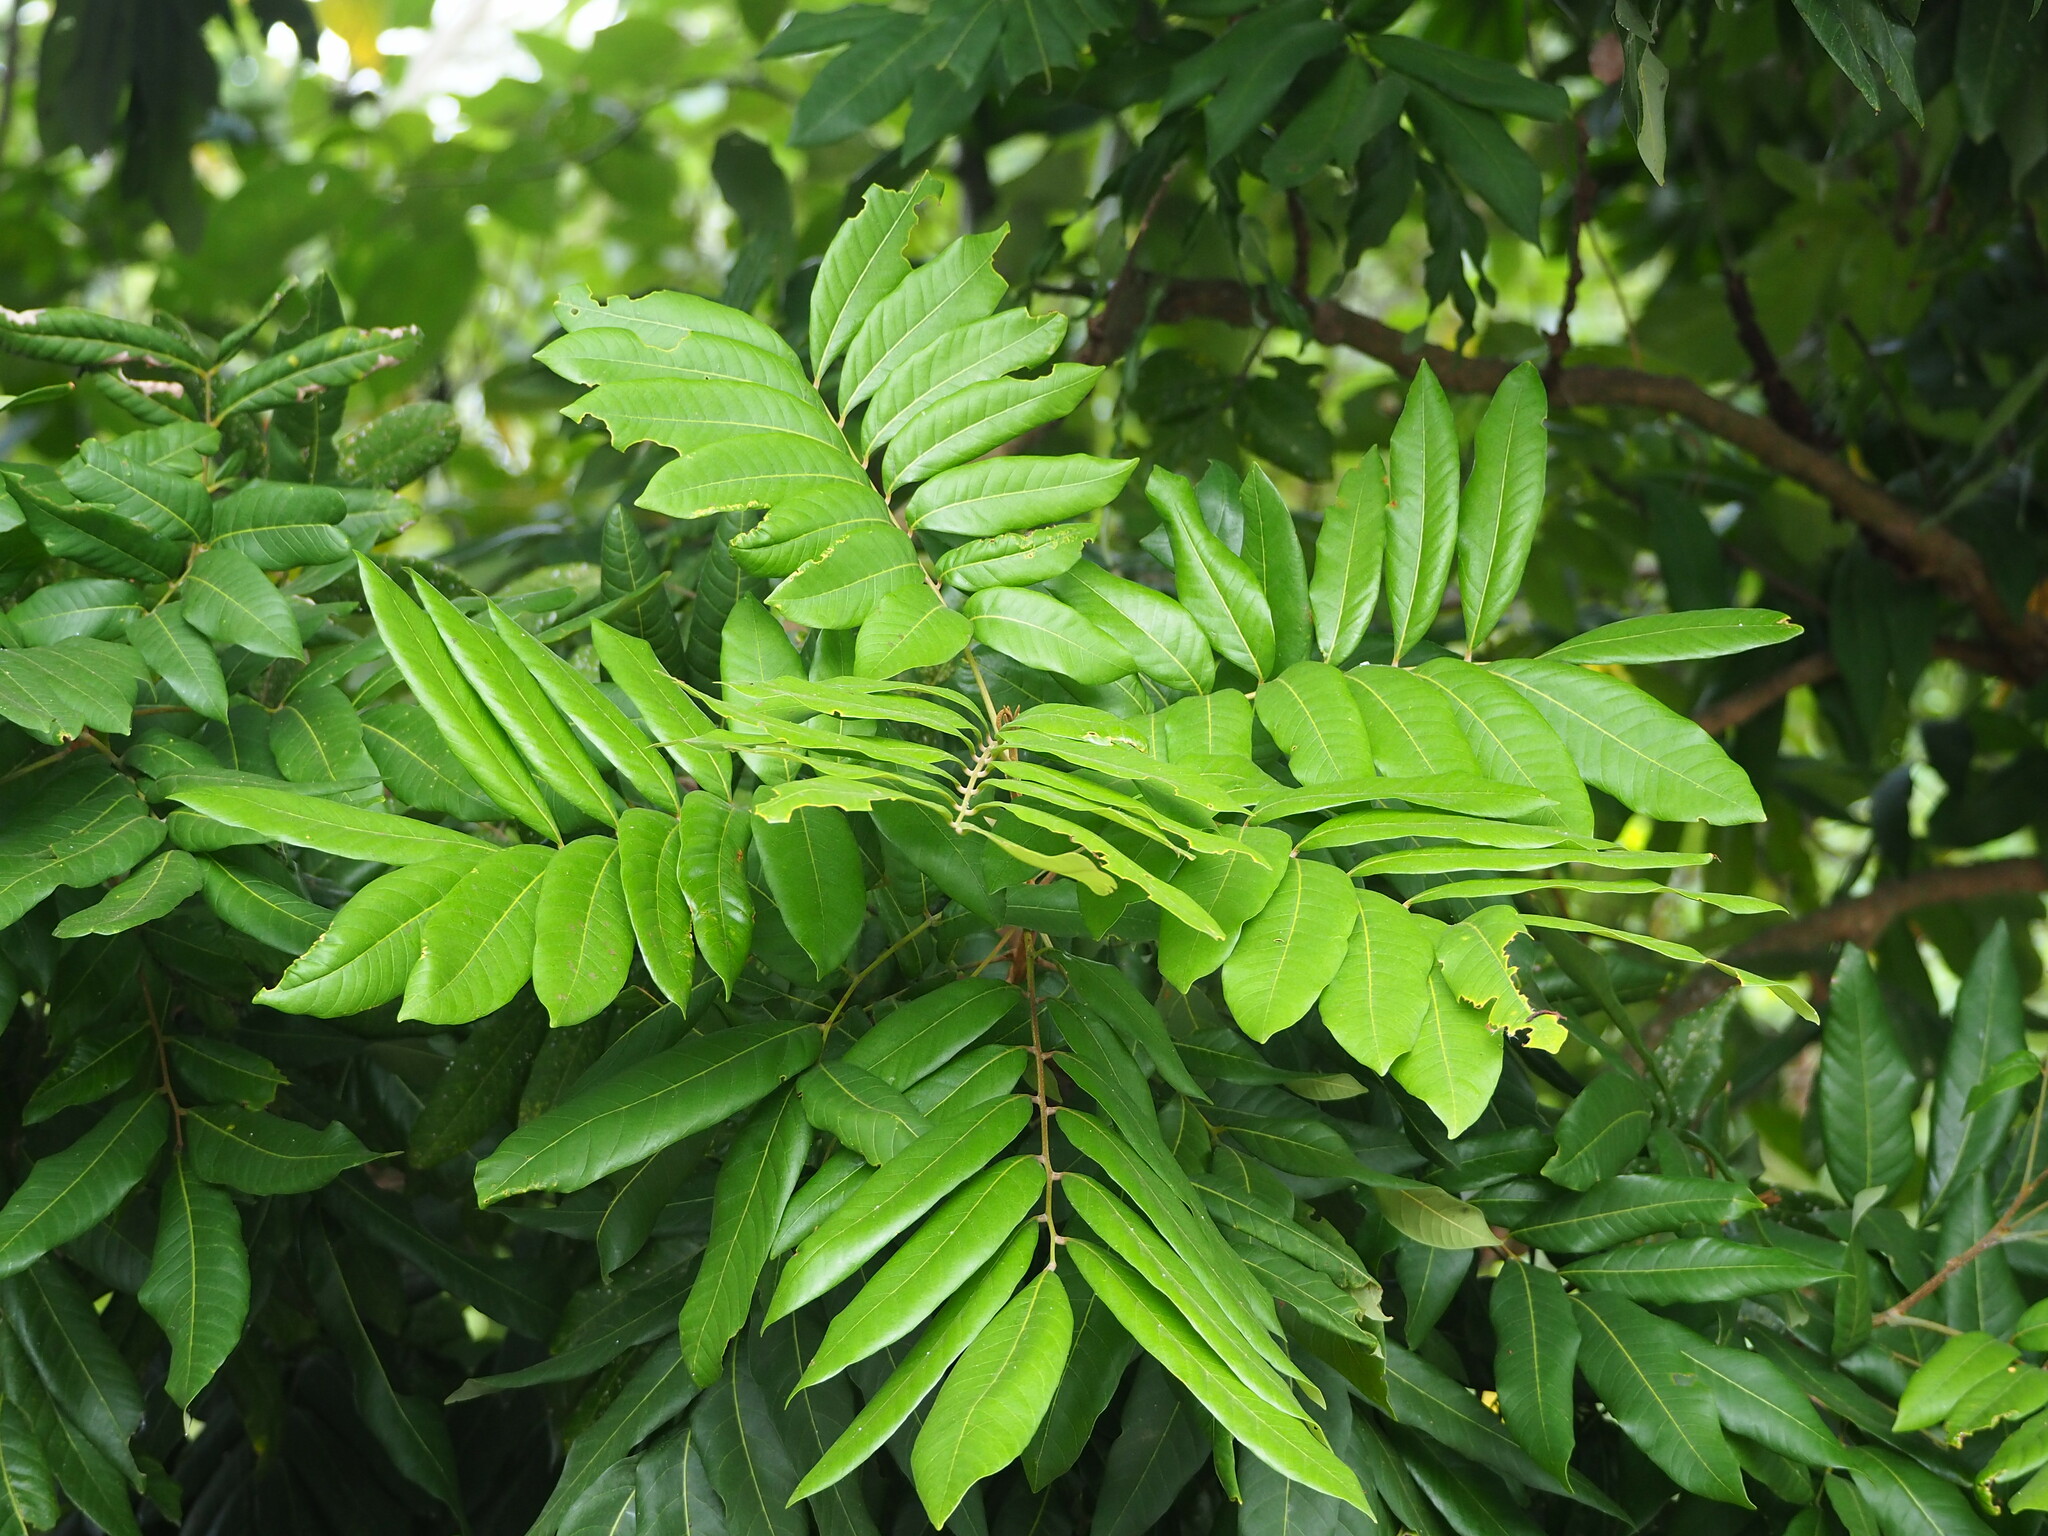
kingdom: Plantae
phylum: Tracheophyta
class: Magnoliopsida
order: Sapindales
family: Sapindaceae
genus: Dimocarpus
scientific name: Dimocarpus longan
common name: Longan
